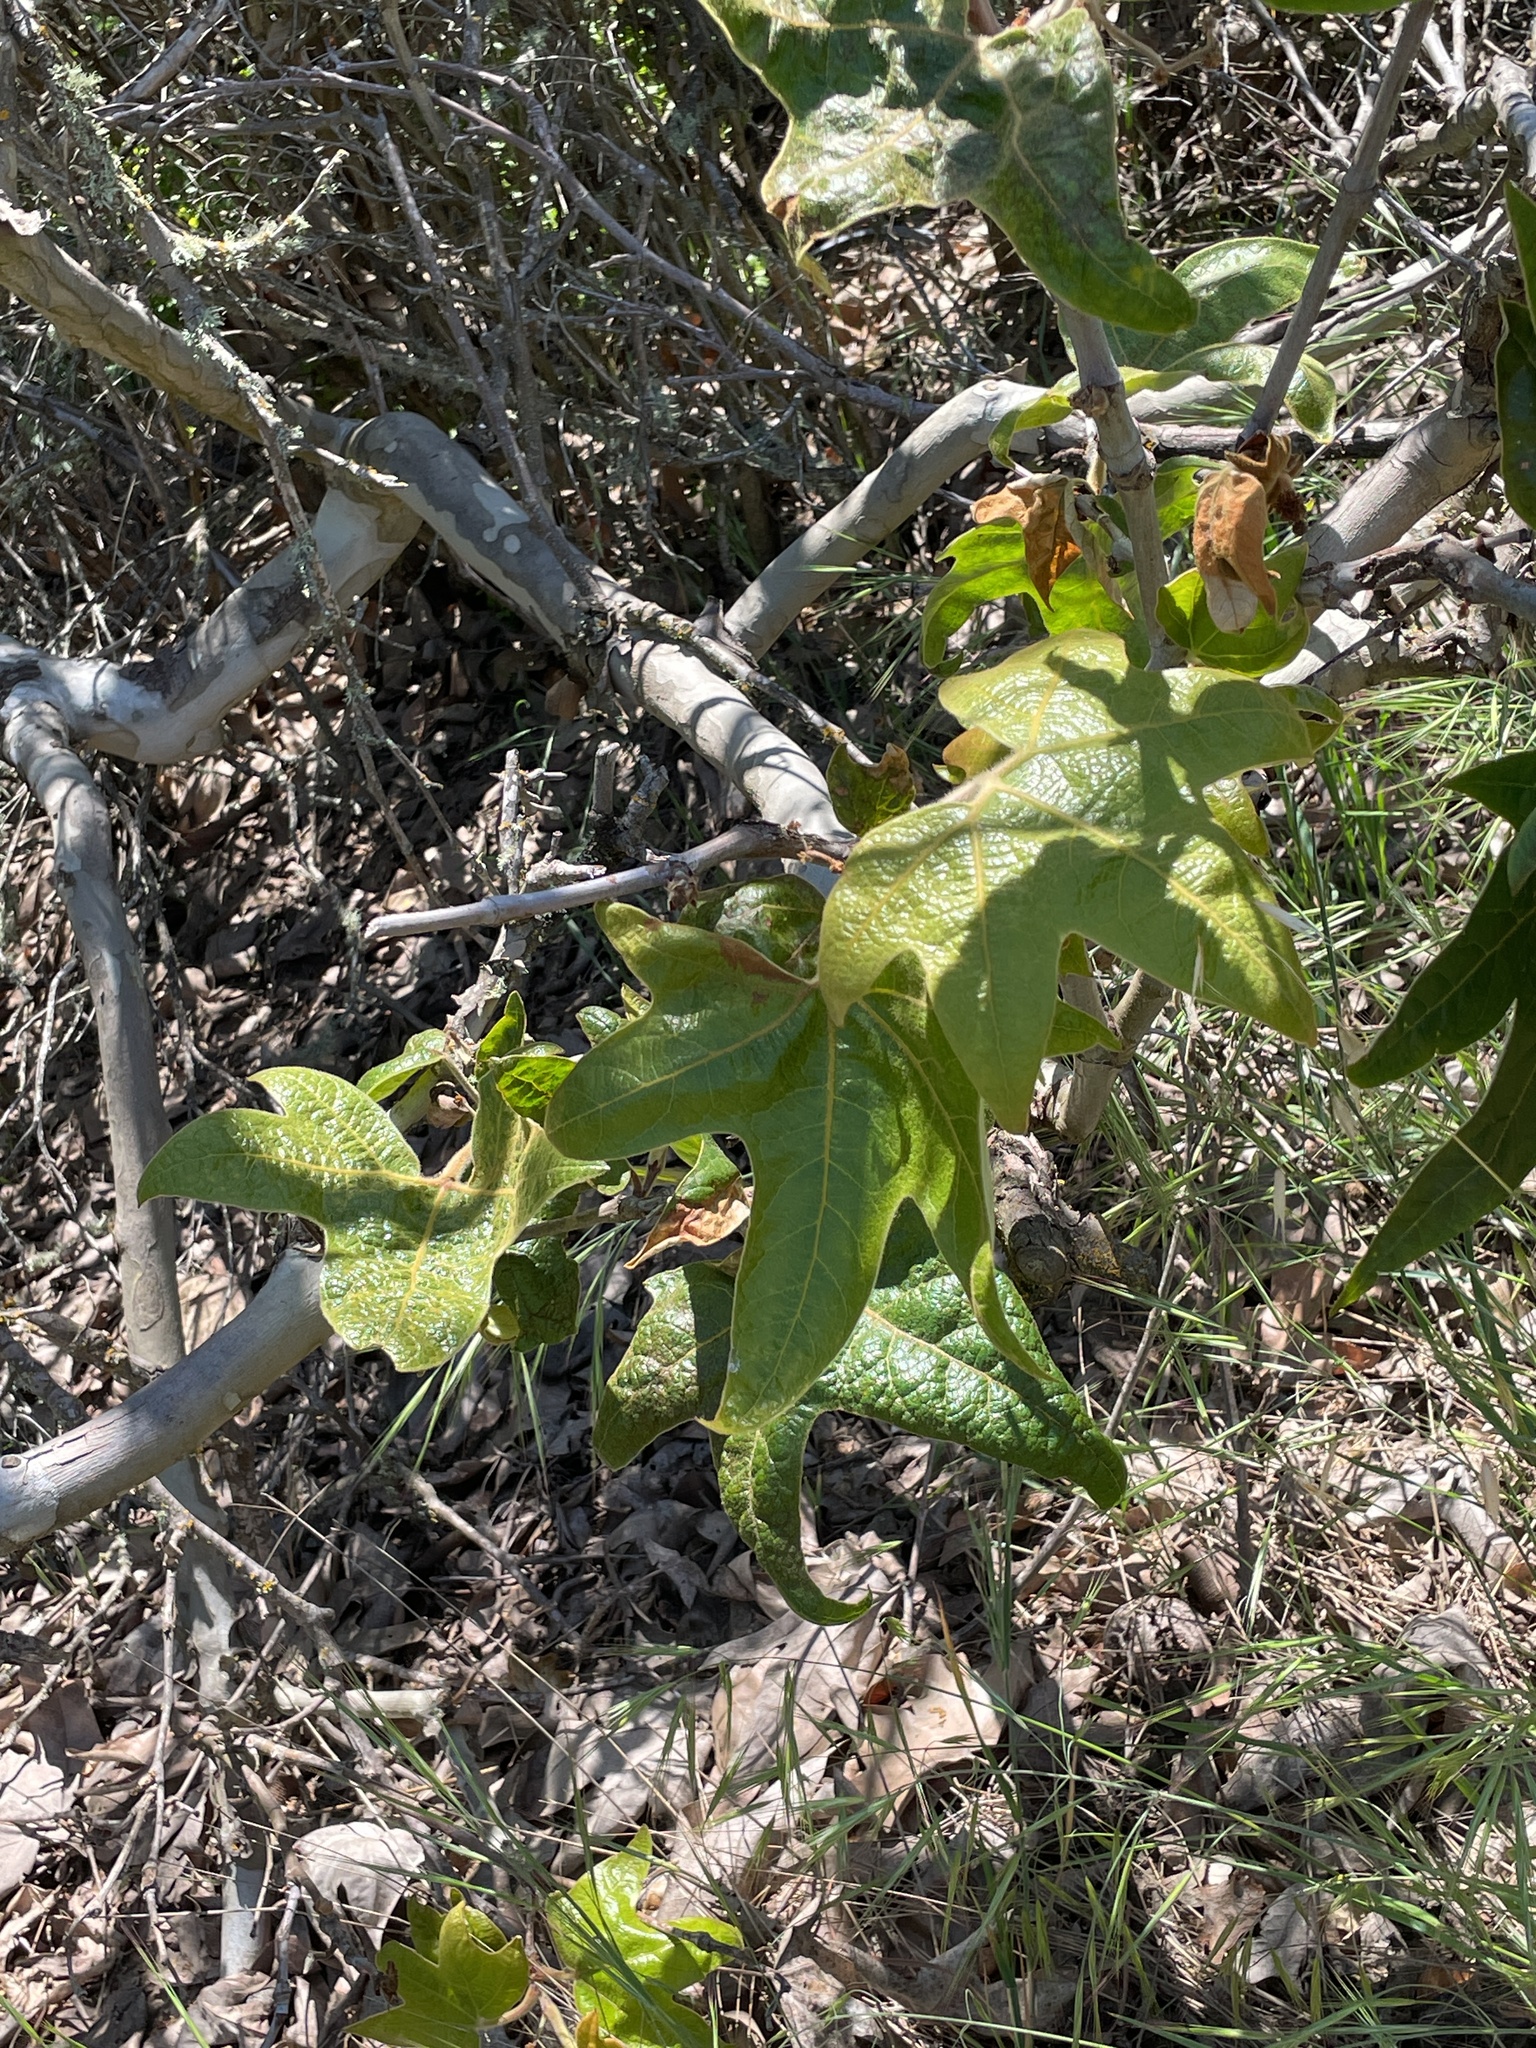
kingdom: Plantae
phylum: Tracheophyta
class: Magnoliopsida
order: Proteales
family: Platanaceae
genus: Platanus
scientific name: Platanus racemosa
